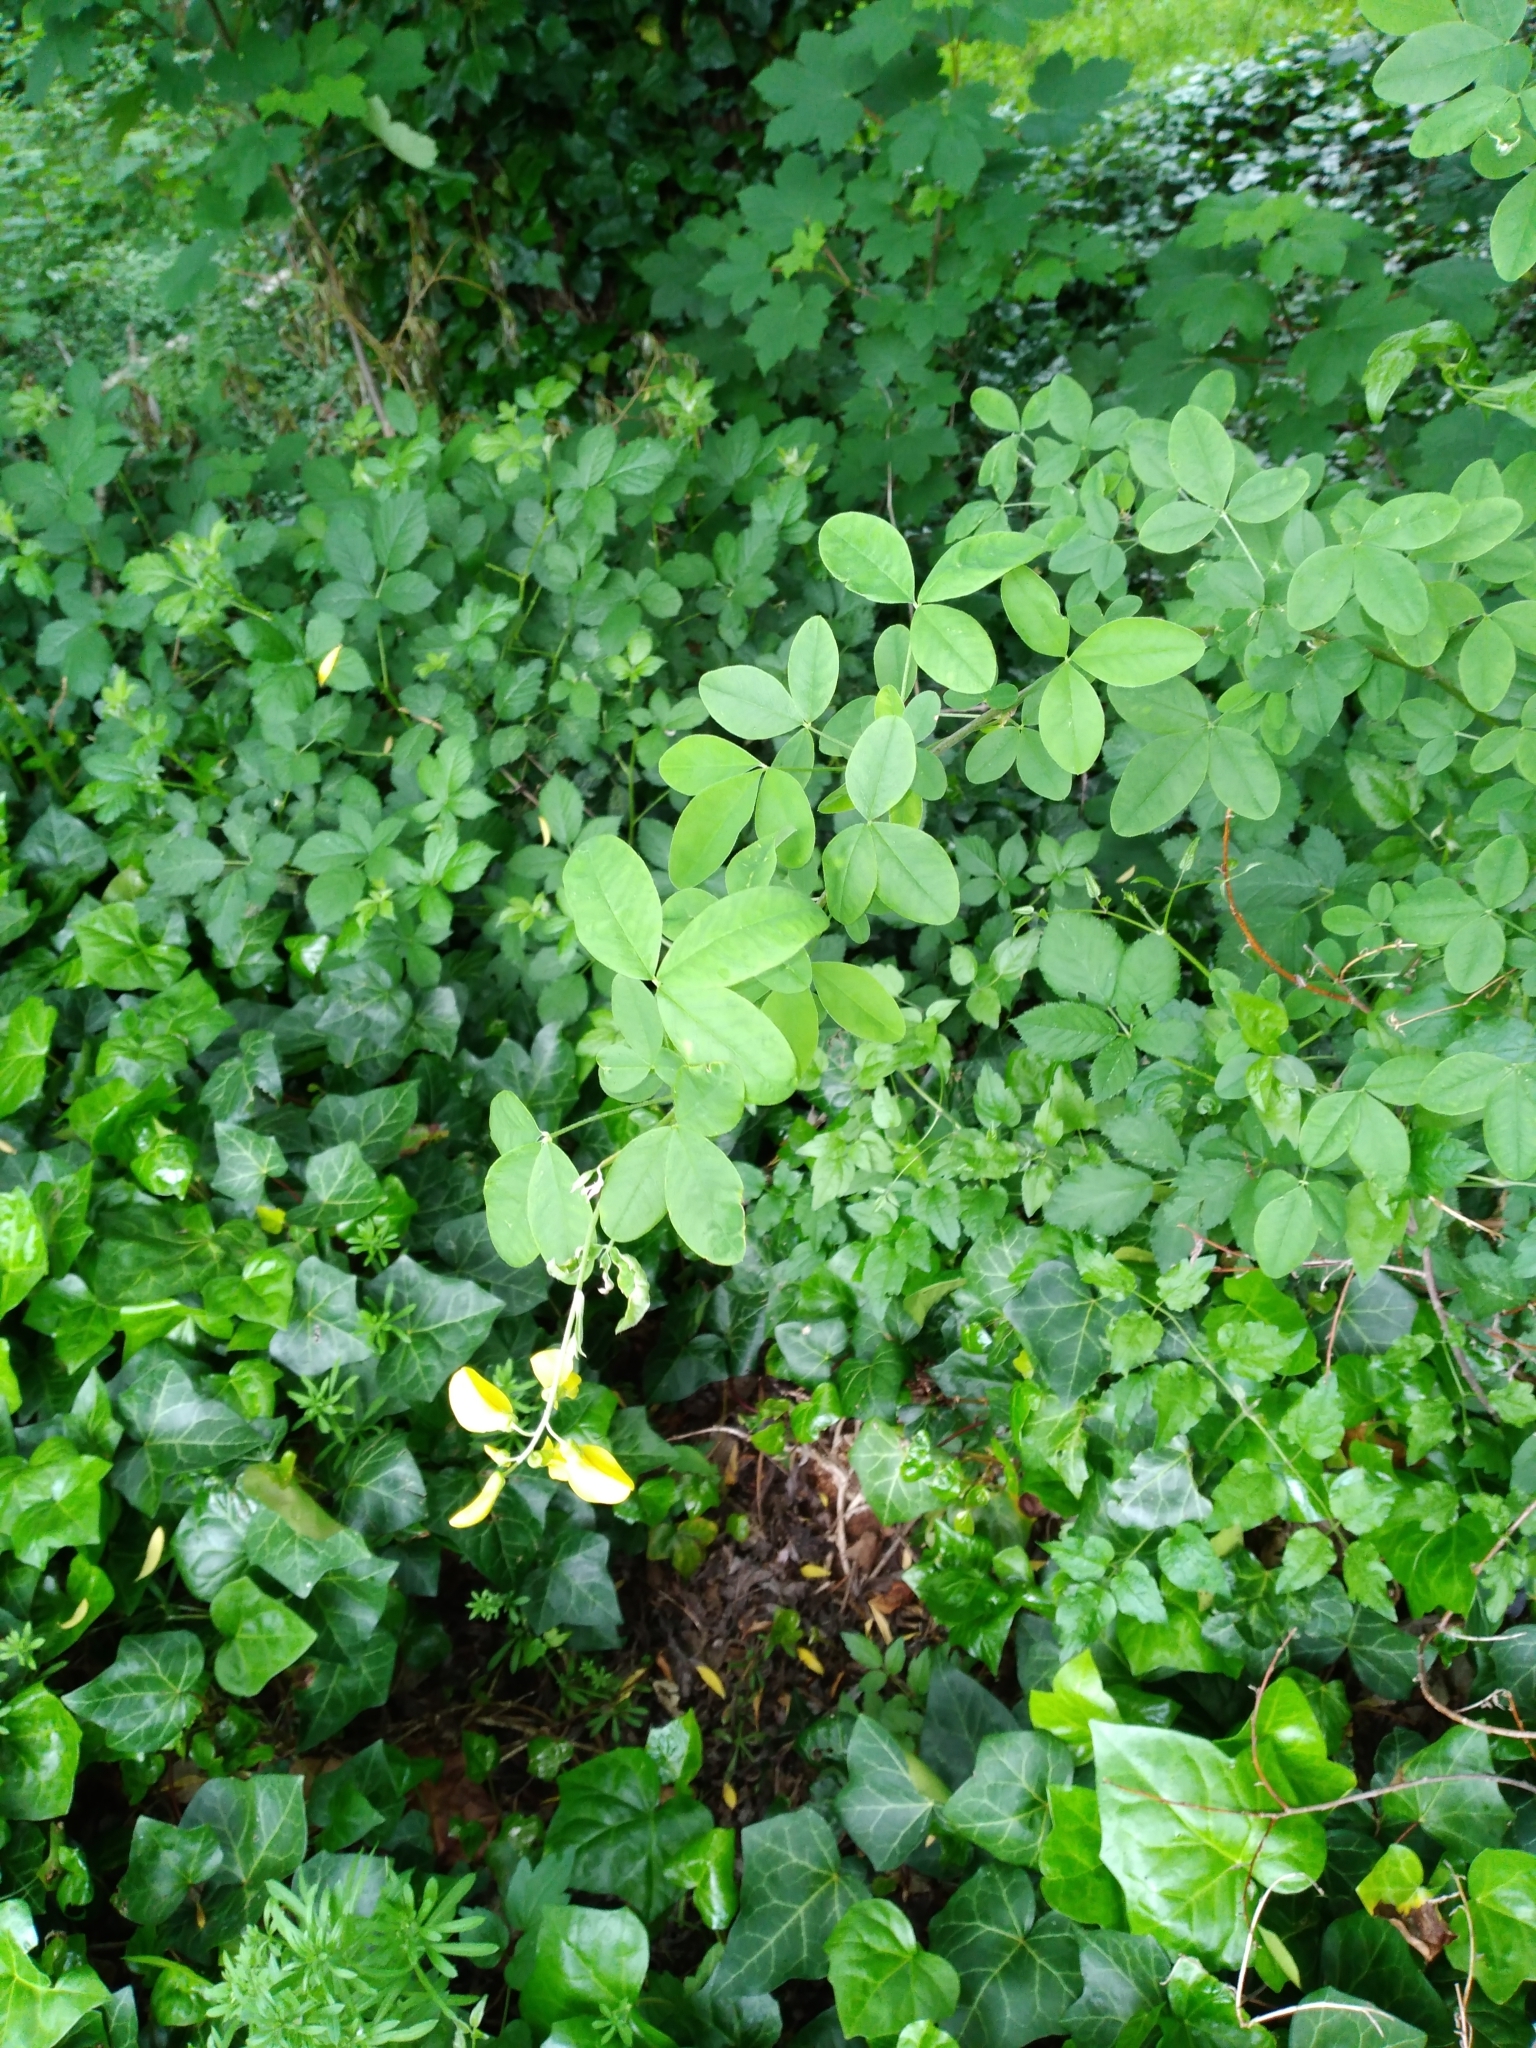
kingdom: Plantae
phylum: Tracheophyta
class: Magnoliopsida
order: Fabales
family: Fabaceae
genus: Laburnum
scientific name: Laburnum anagyroides
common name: Laburnum
